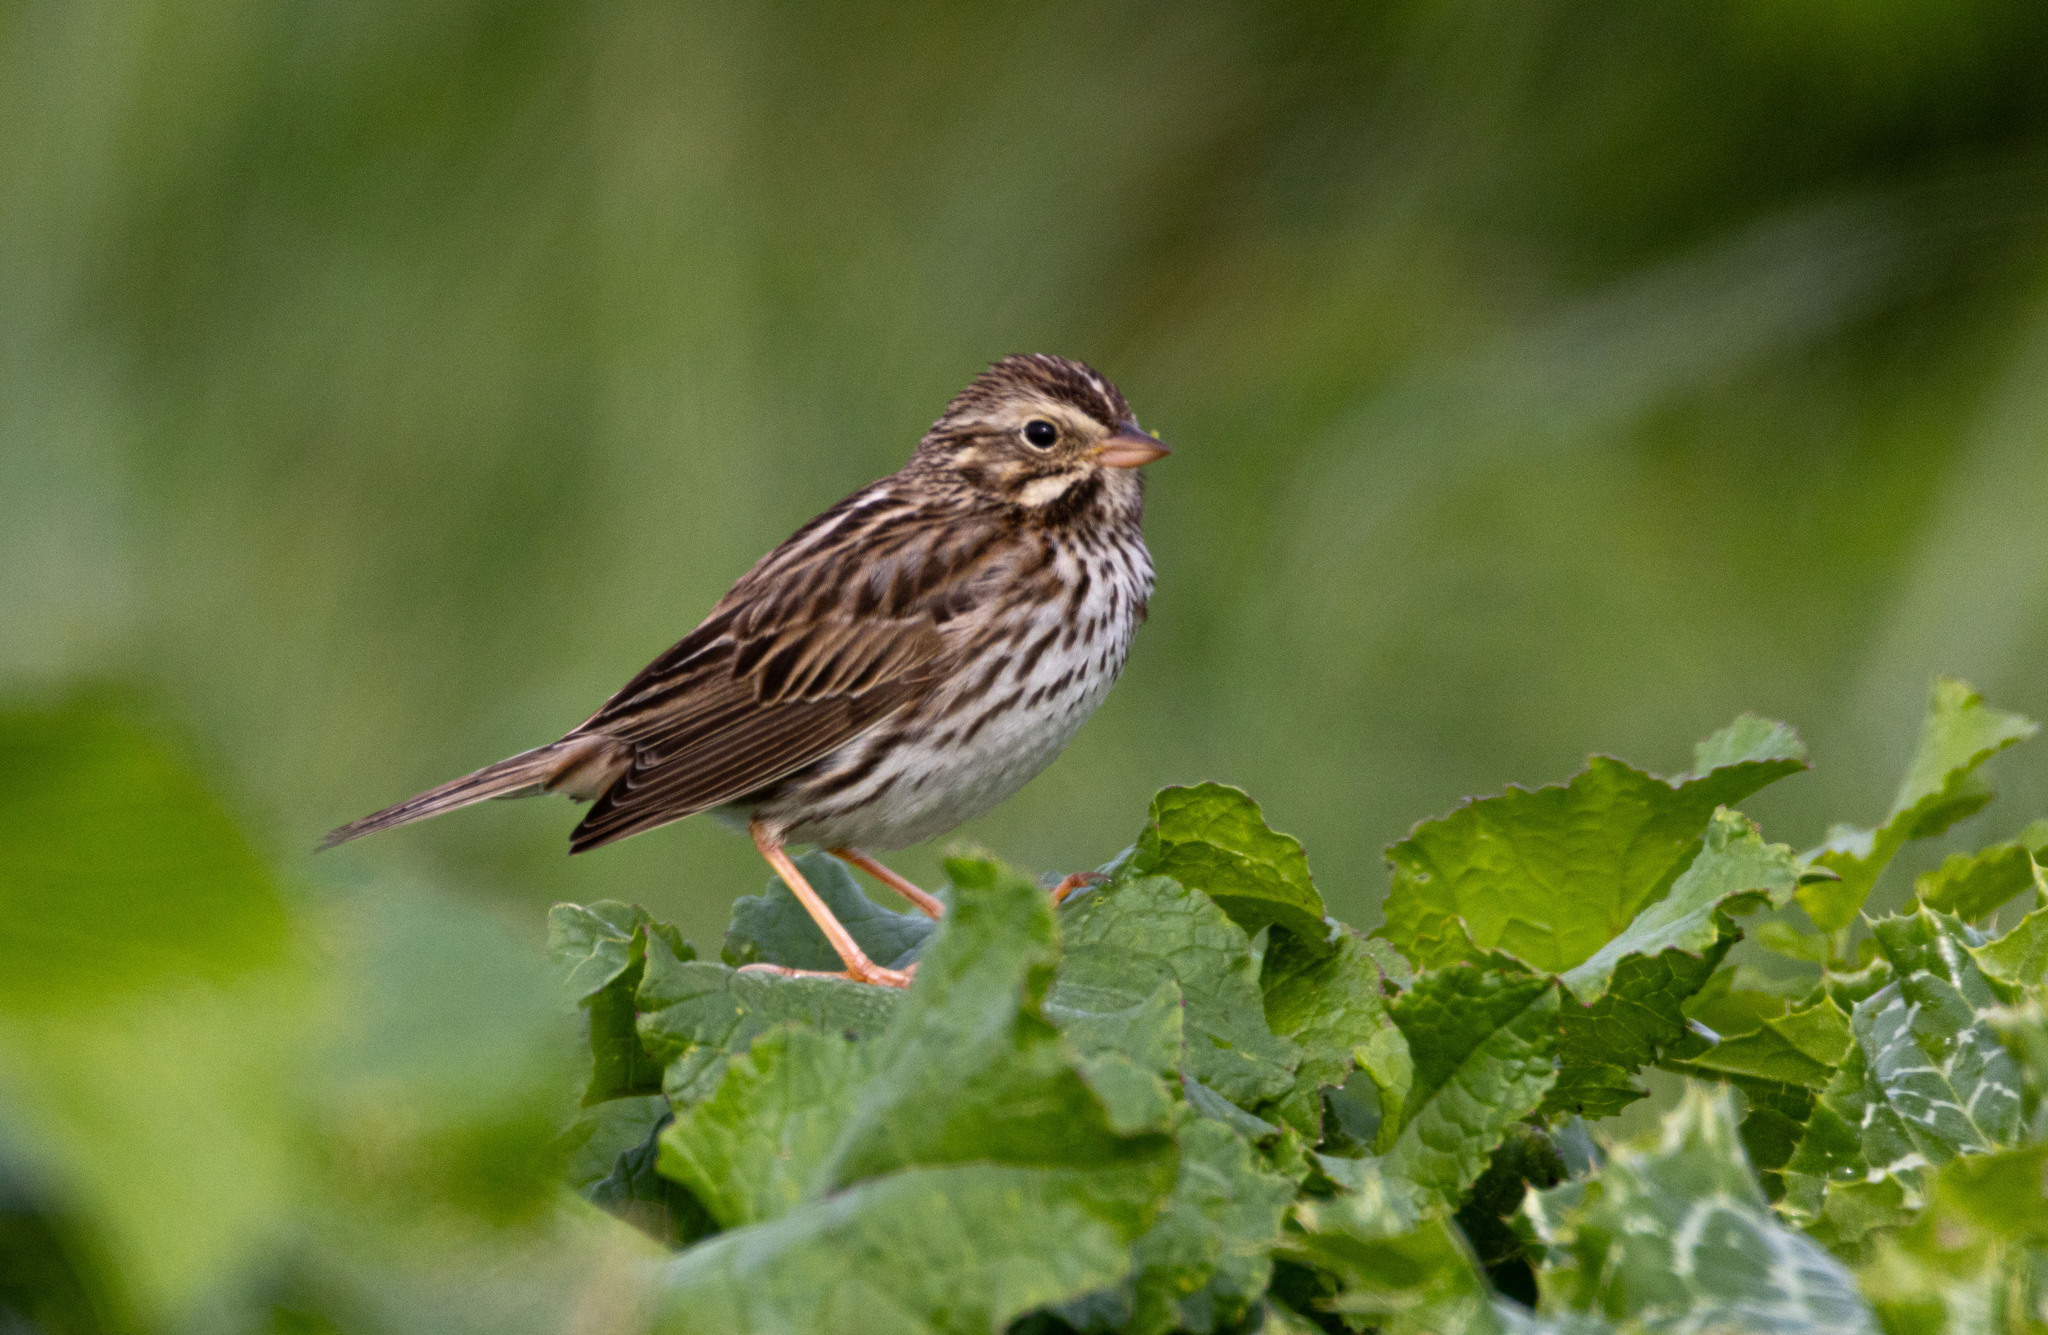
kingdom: Animalia
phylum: Chordata
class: Aves
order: Passeriformes
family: Passerellidae
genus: Passerculus
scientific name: Passerculus sandwichensis
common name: Savannah sparrow
